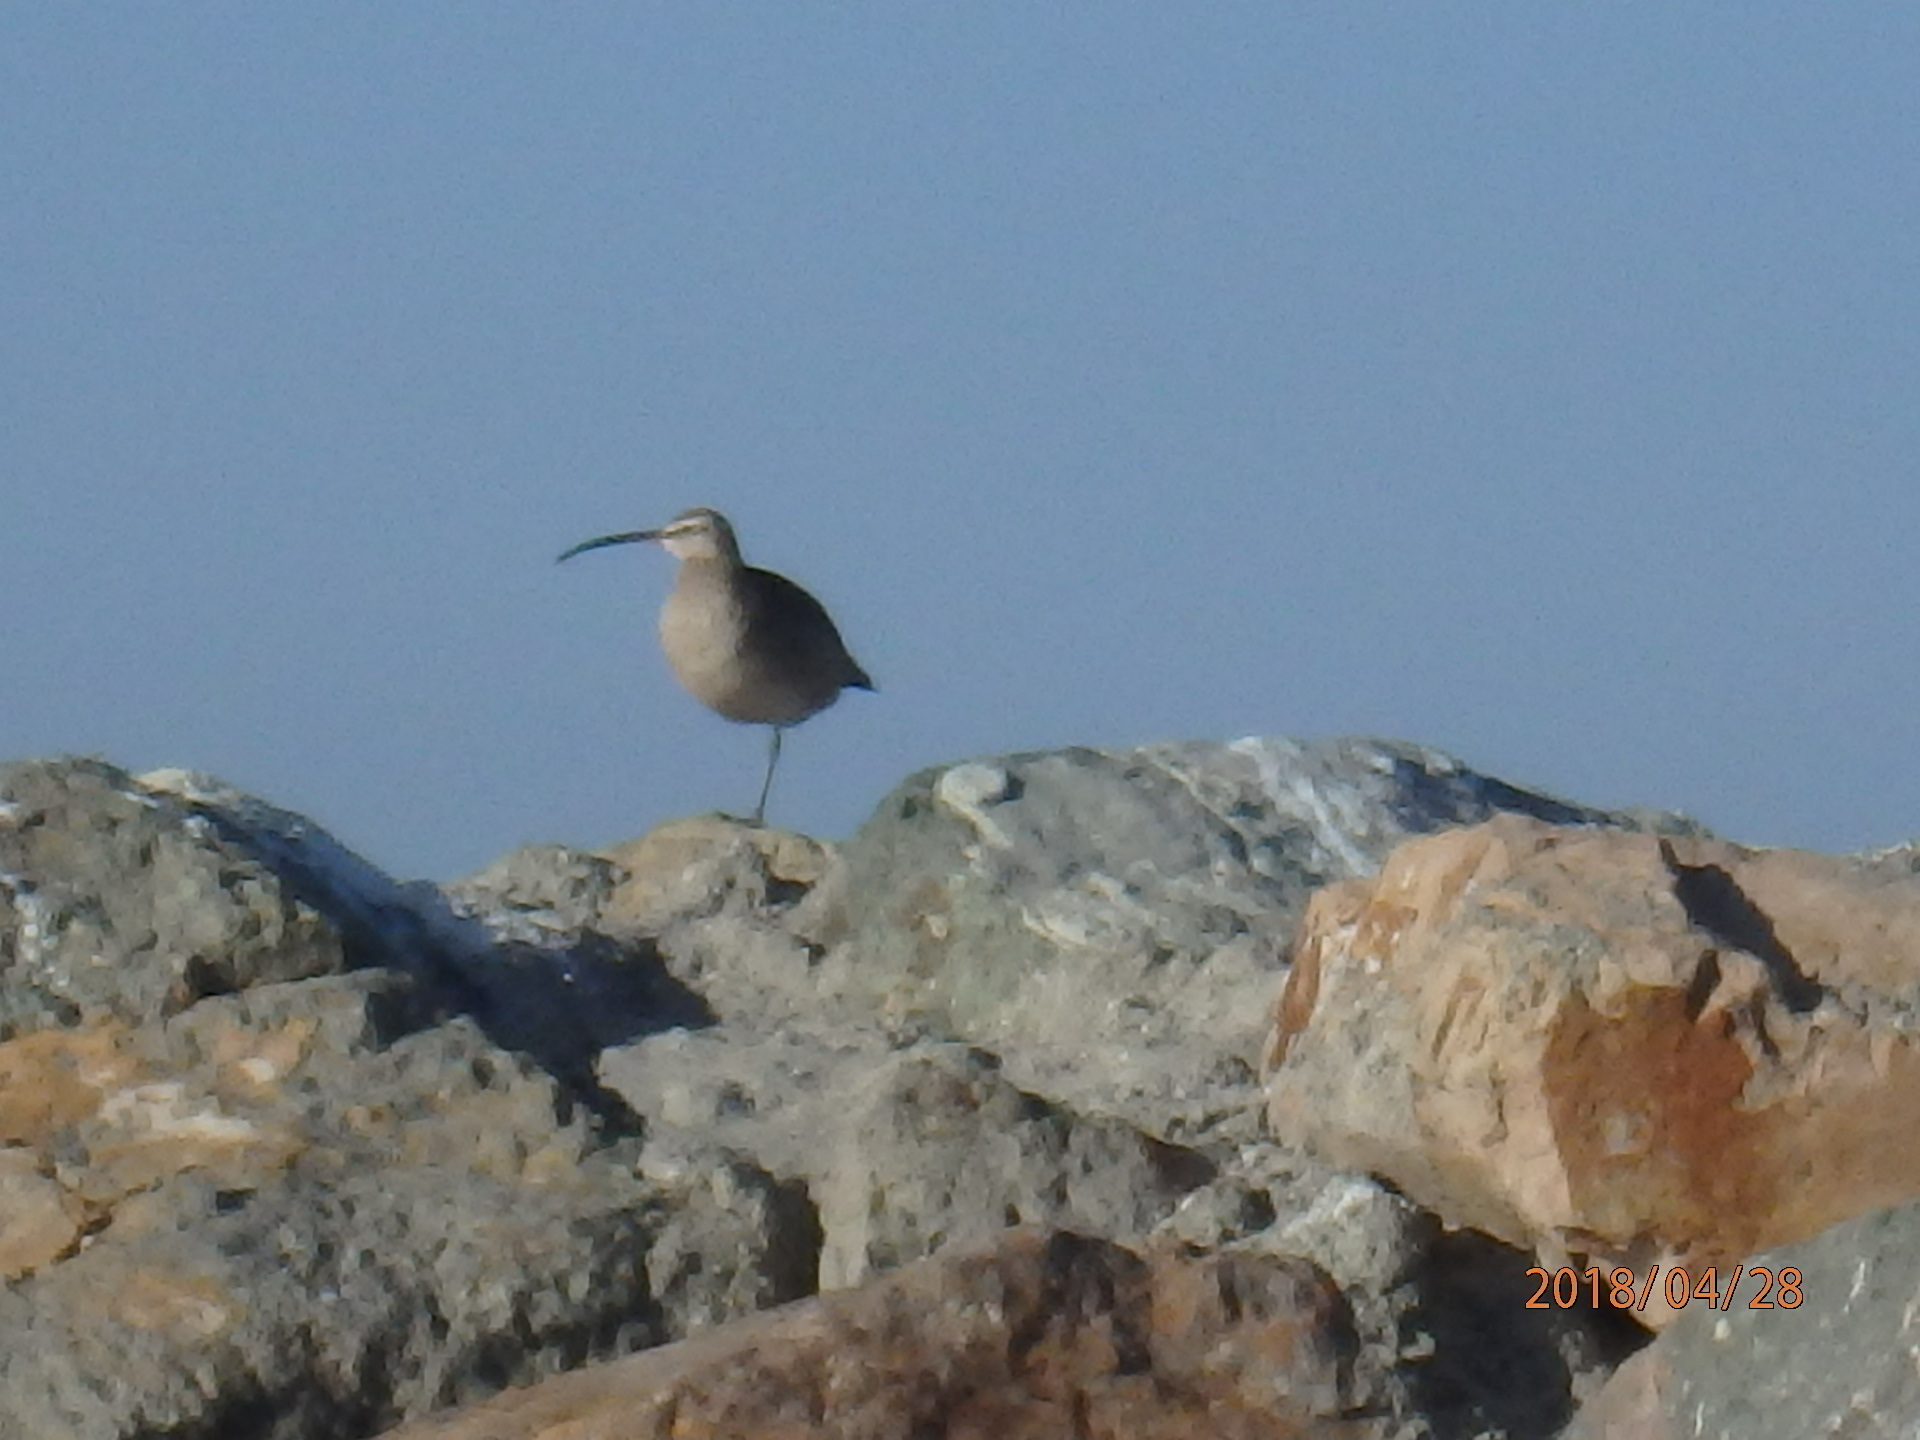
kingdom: Animalia
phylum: Chordata
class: Aves
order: Charadriiformes
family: Scolopacidae
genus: Numenius
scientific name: Numenius phaeopus
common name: Whimbrel
